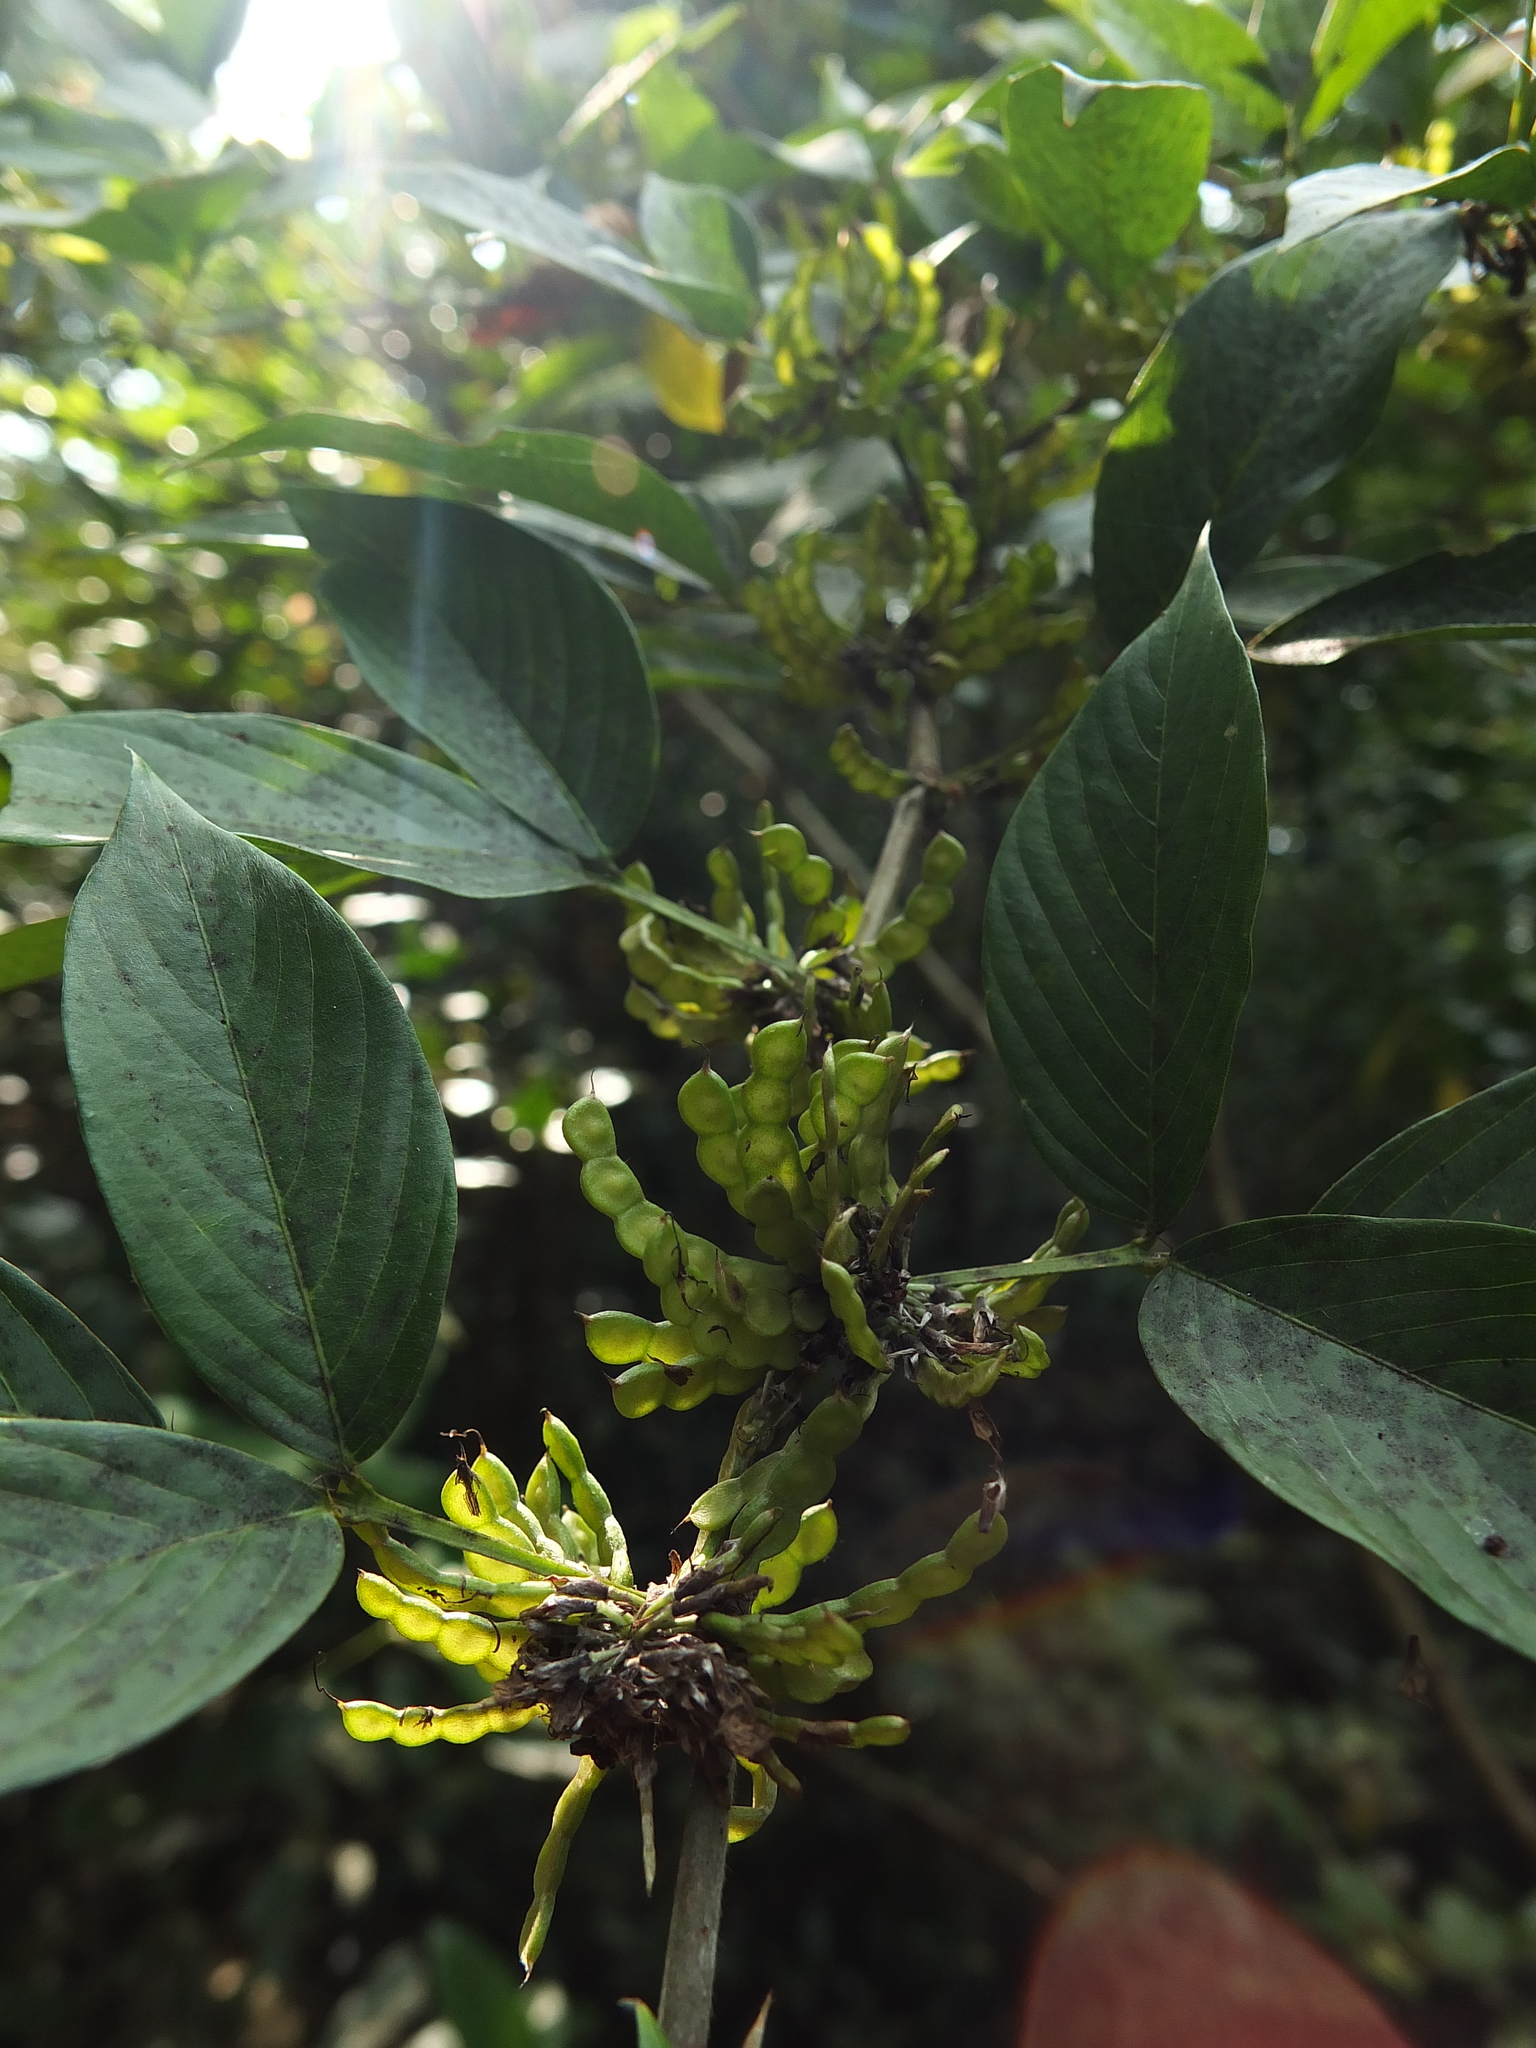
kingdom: Plantae
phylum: Tracheophyta
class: Magnoliopsida
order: Fabales
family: Fabaceae
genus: Dendrolobium
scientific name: Dendrolobium triangulare
